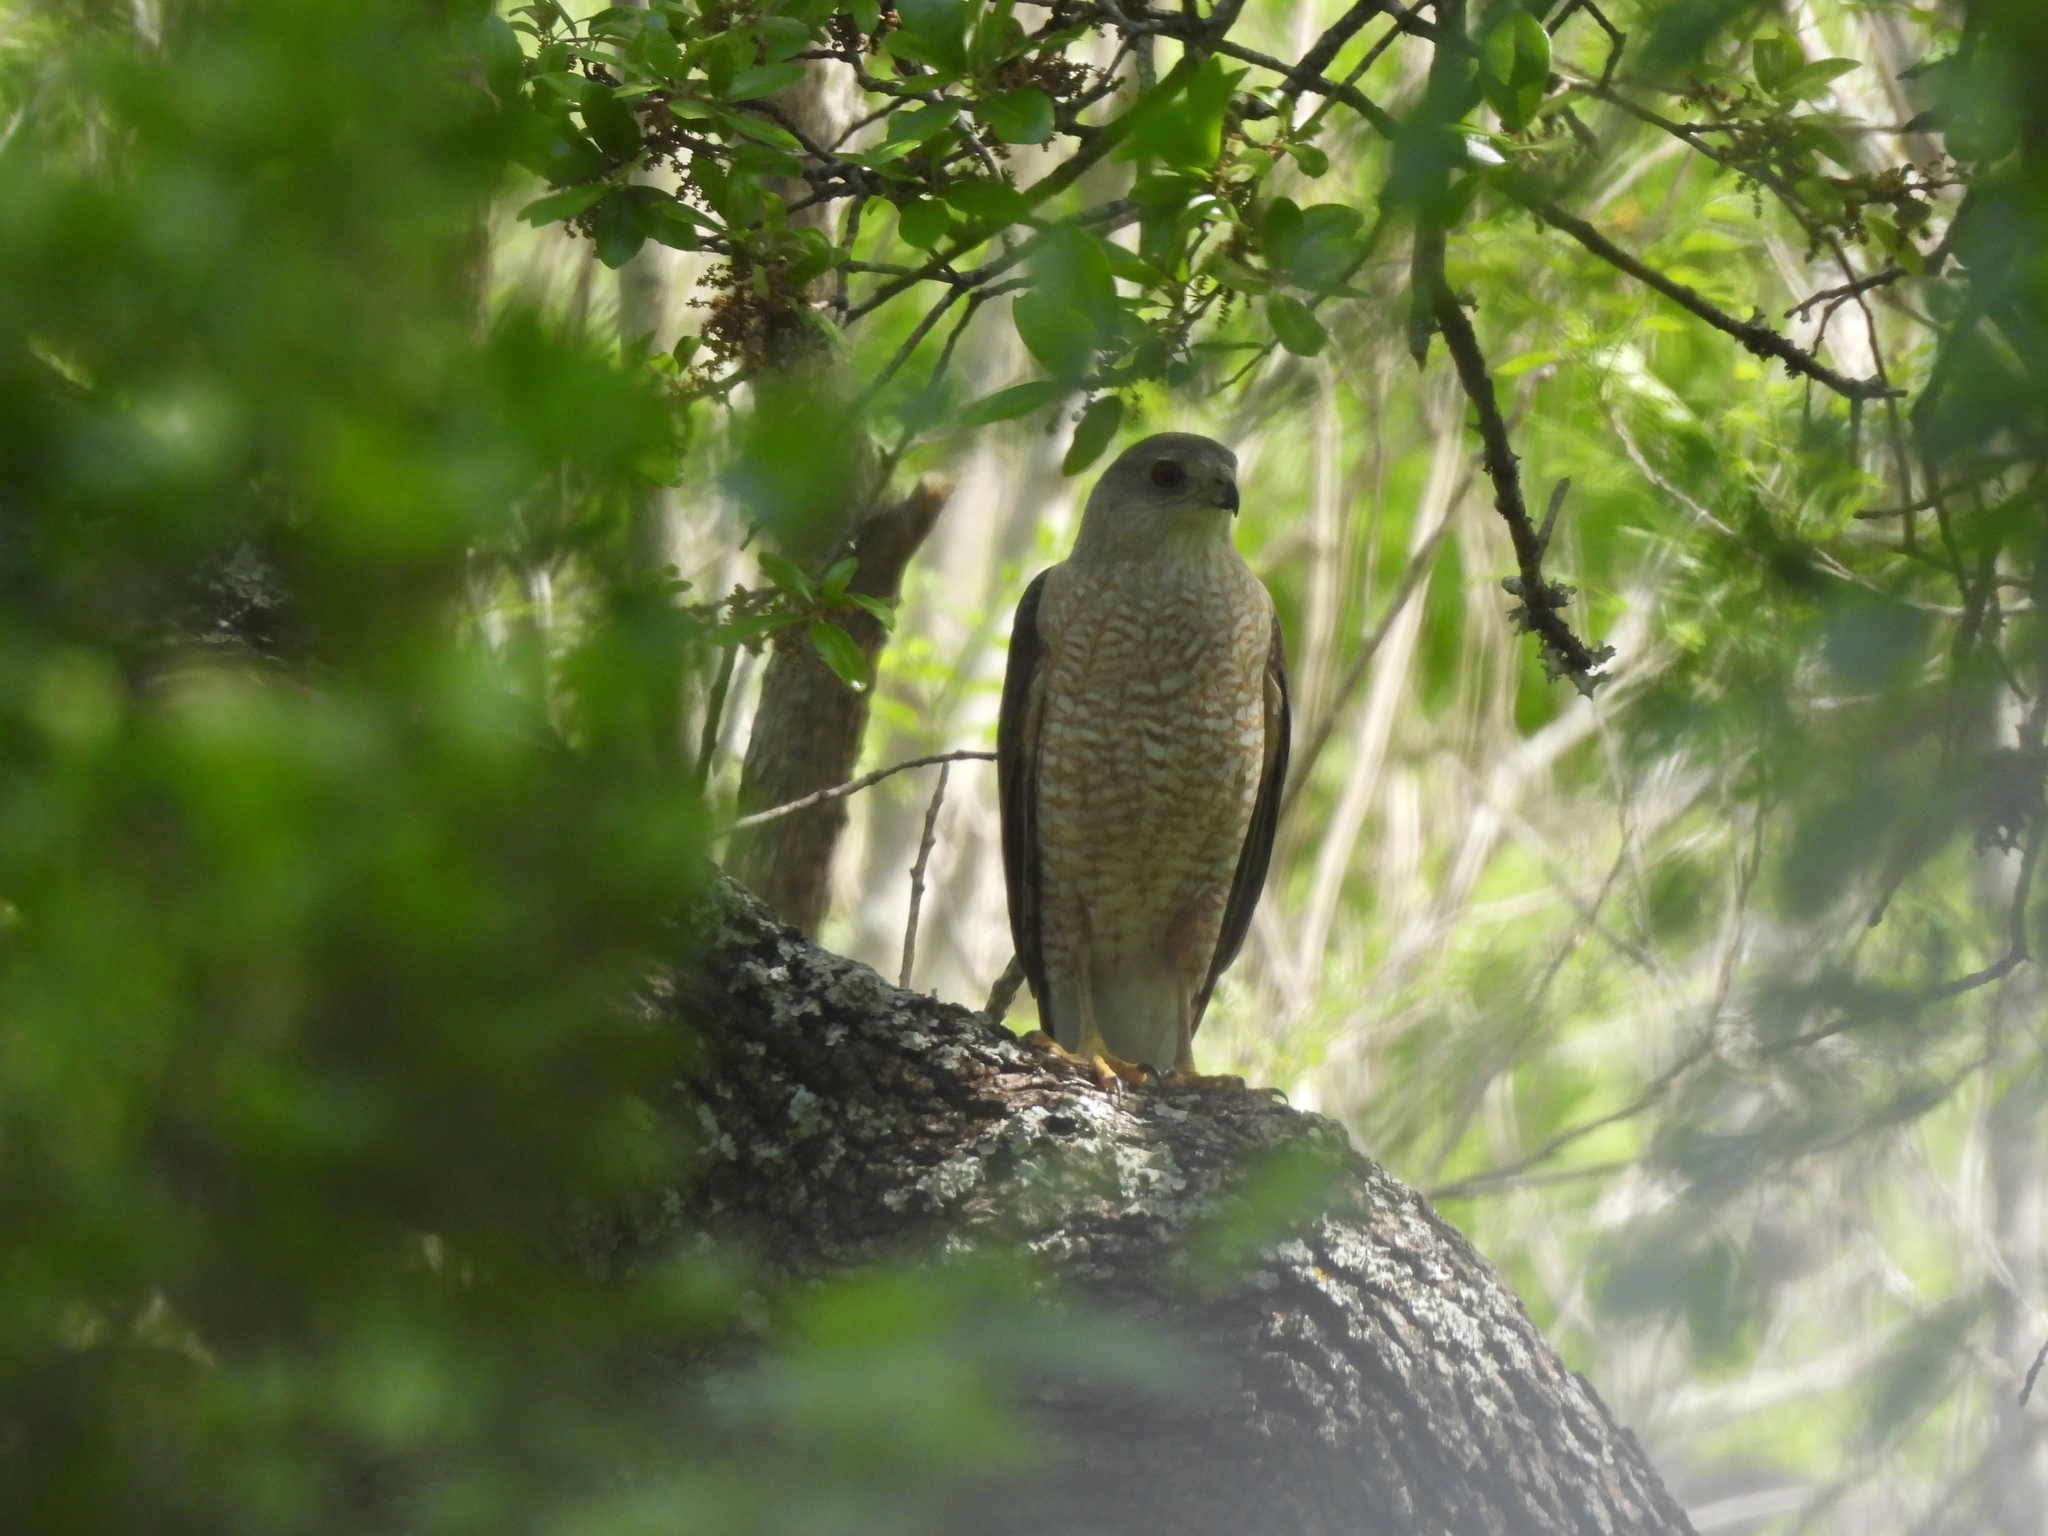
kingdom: Animalia
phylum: Chordata
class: Aves
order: Accipitriformes
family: Accipitridae
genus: Accipiter
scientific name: Accipiter cooperii
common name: Cooper's hawk
